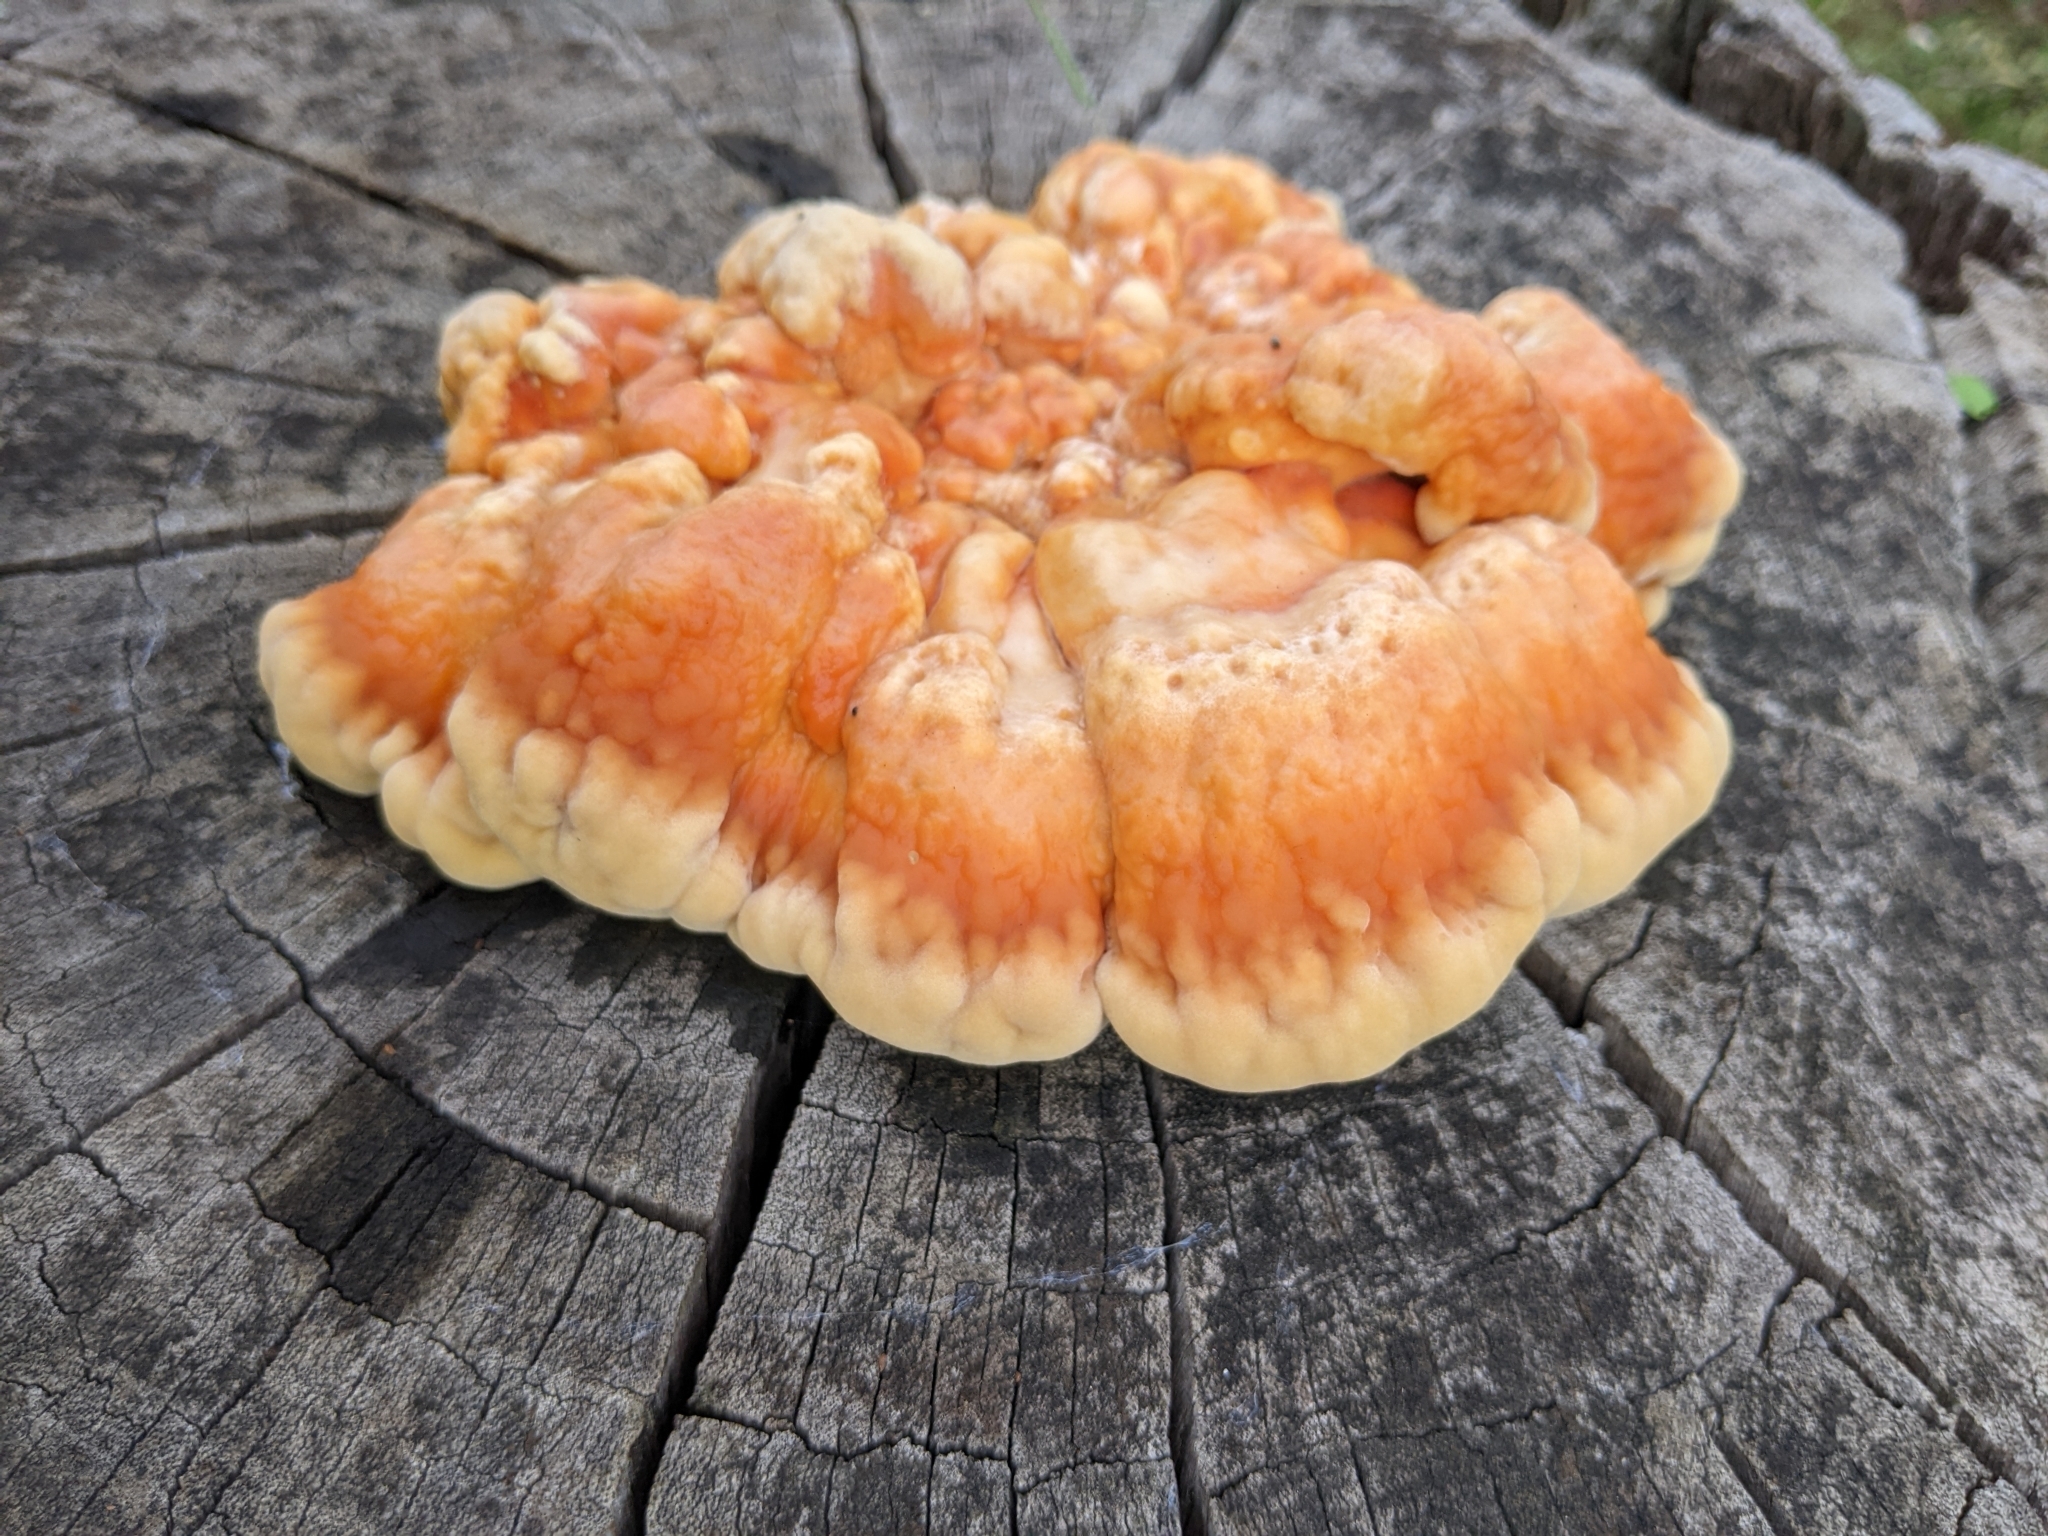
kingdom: Fungi
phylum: Basidiomycota
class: Agaricomycetes
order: Polyporales
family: Laetiporaceae
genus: Laetiporus
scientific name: Laetiporus sulphureus
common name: Chicken of the woods
